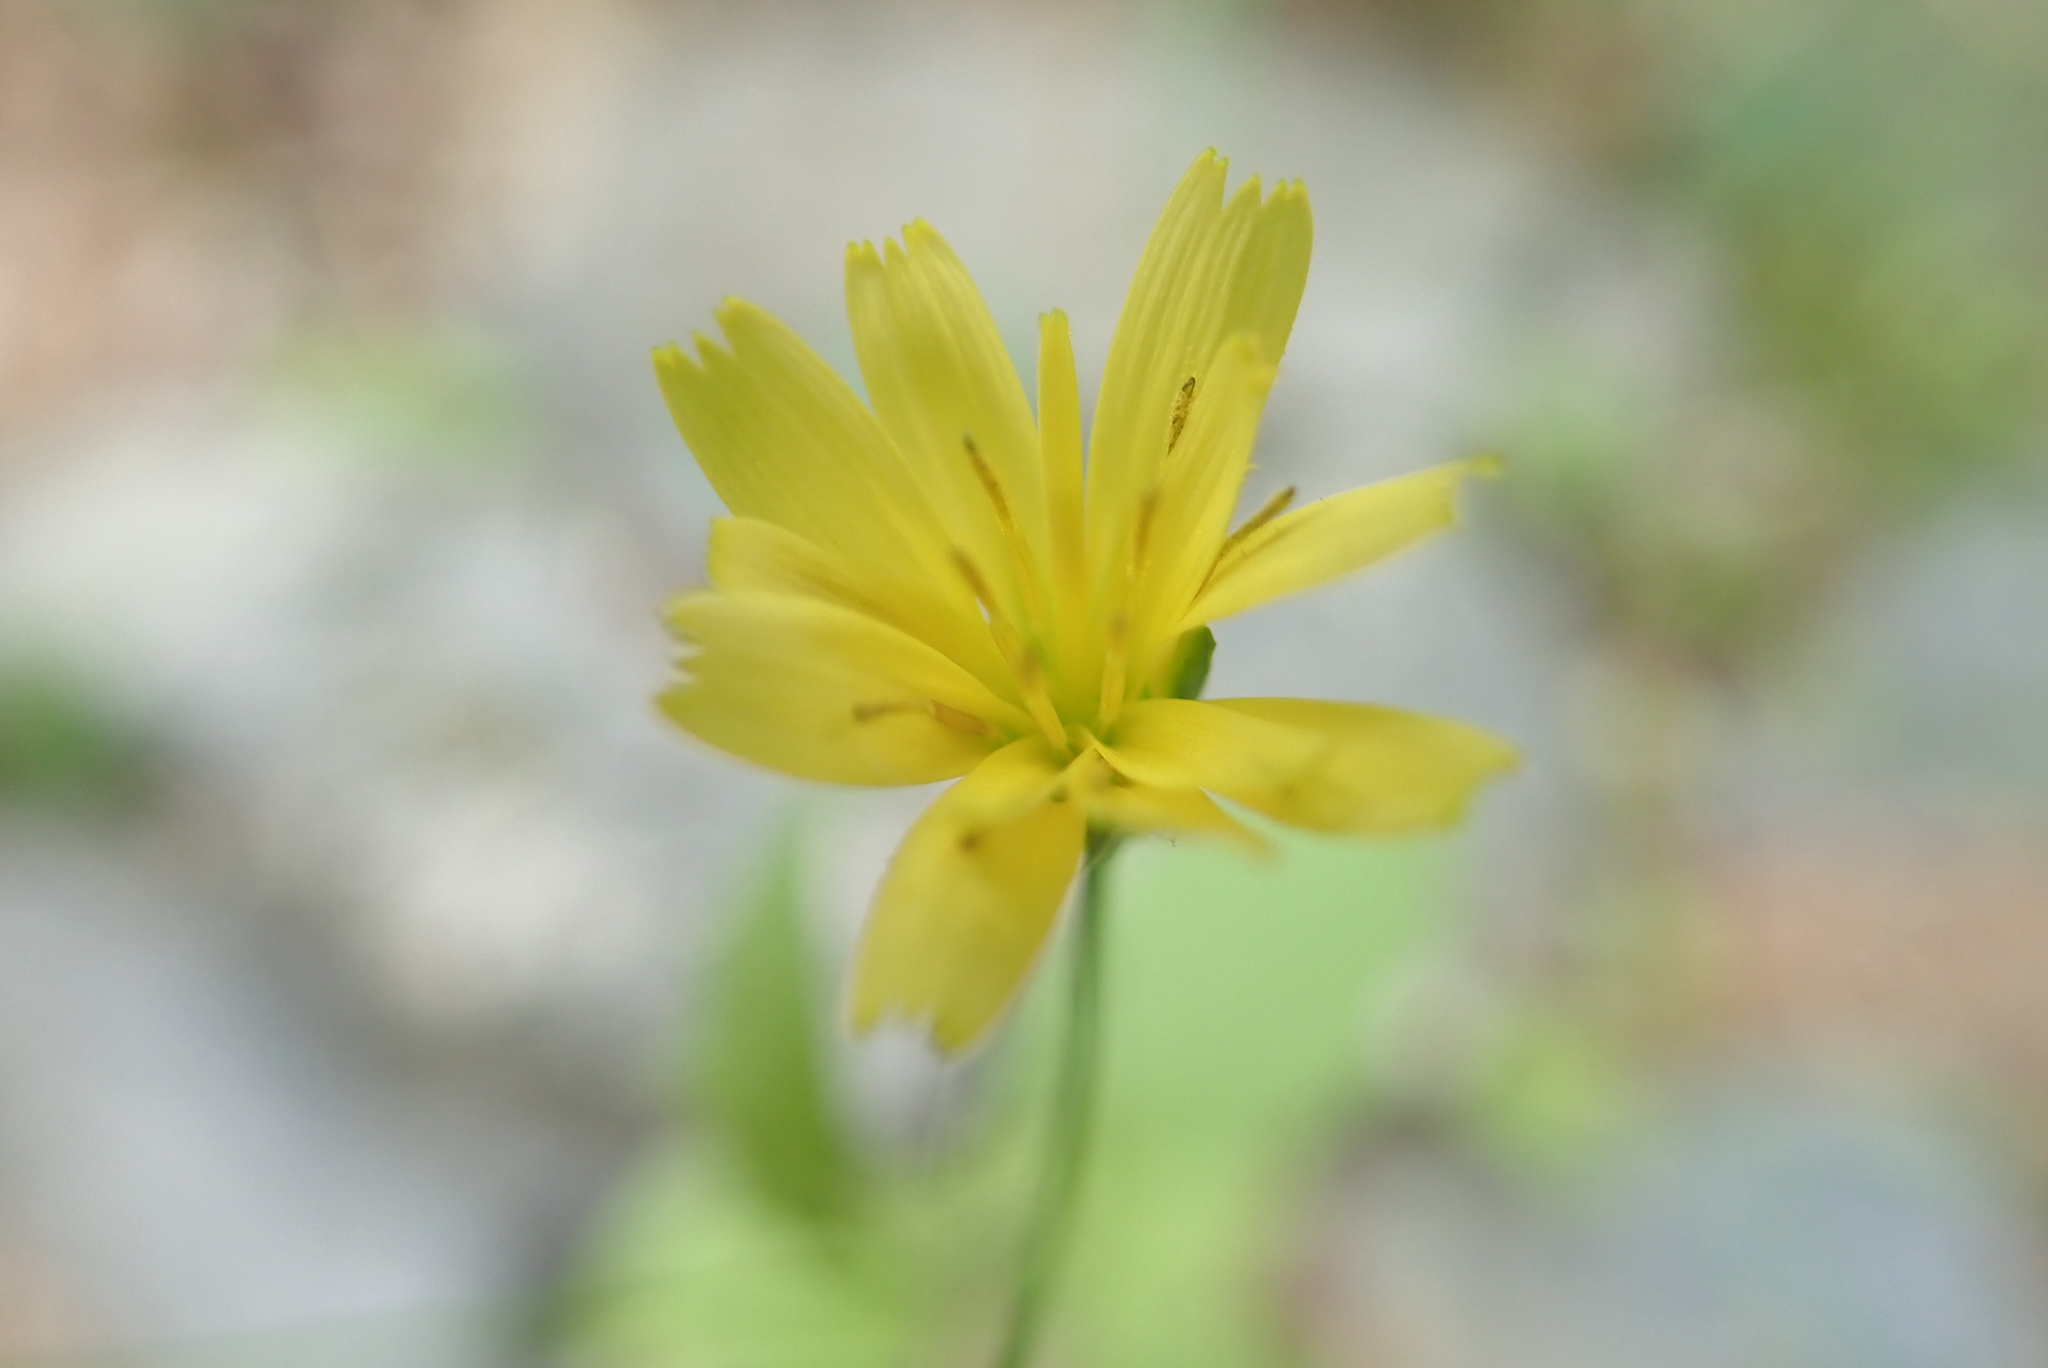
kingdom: Plantae
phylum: Tracheophyta
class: Magnoliopsida
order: Asterales
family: Asteraceae
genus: Lapsana
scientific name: Lapsana communis
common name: Nipplewort
